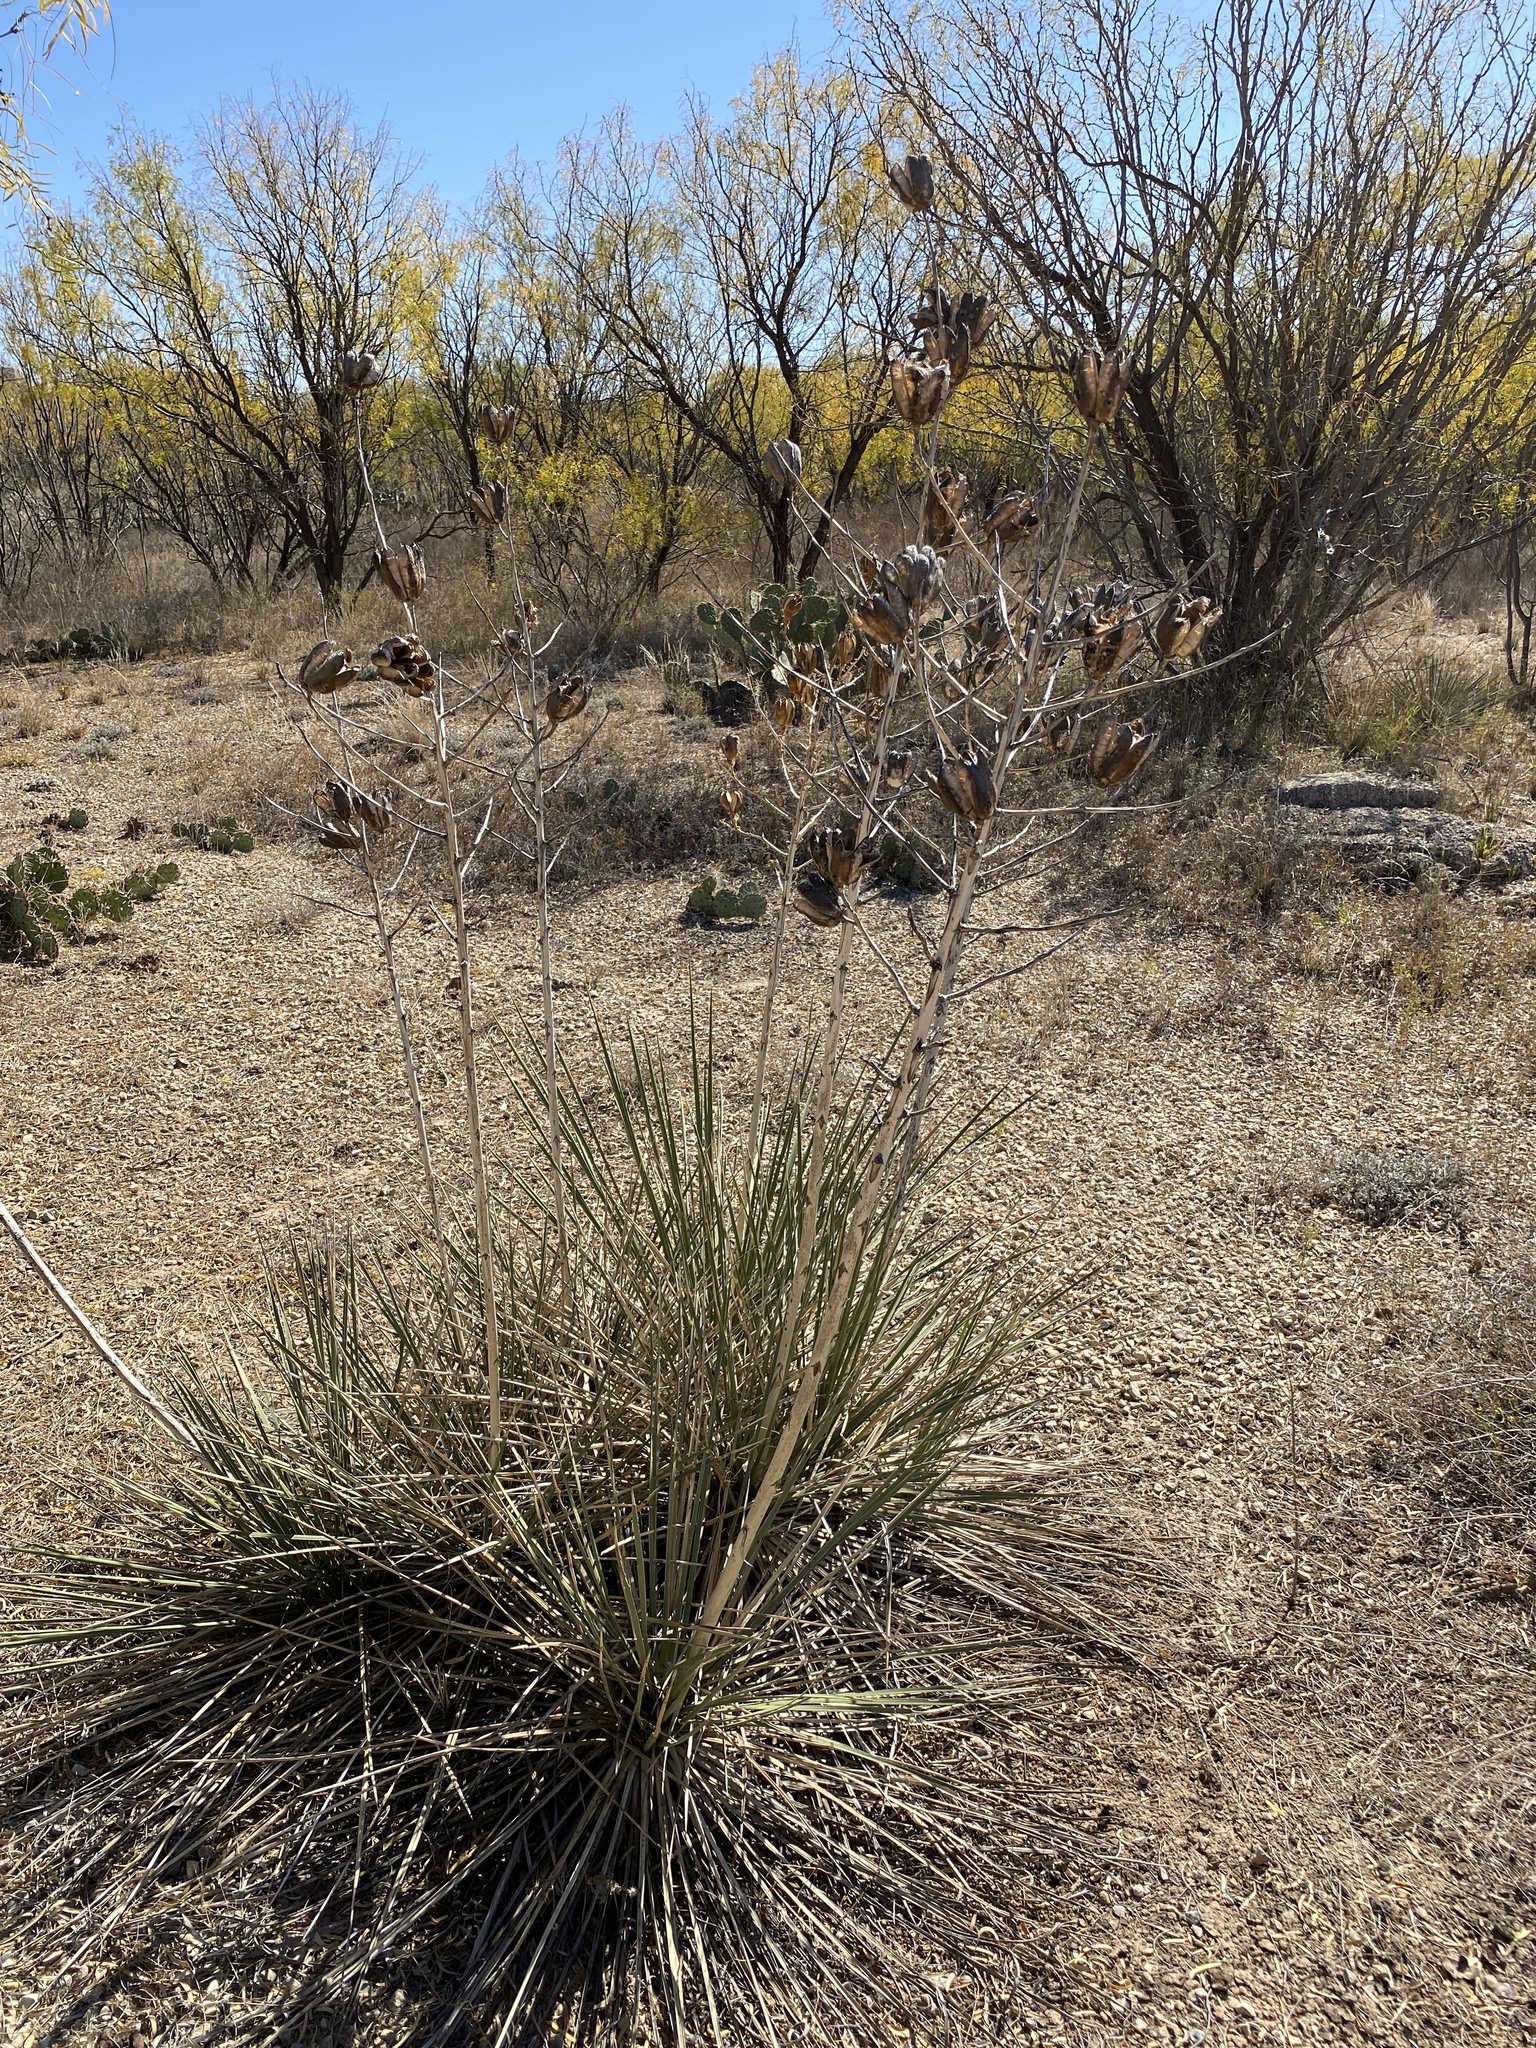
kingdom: Plantae
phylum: Tracheophyta
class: Liliopsida
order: Asparagales
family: Asparagaceae
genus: Yucca
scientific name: Yucca campestris
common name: Plains yucca
